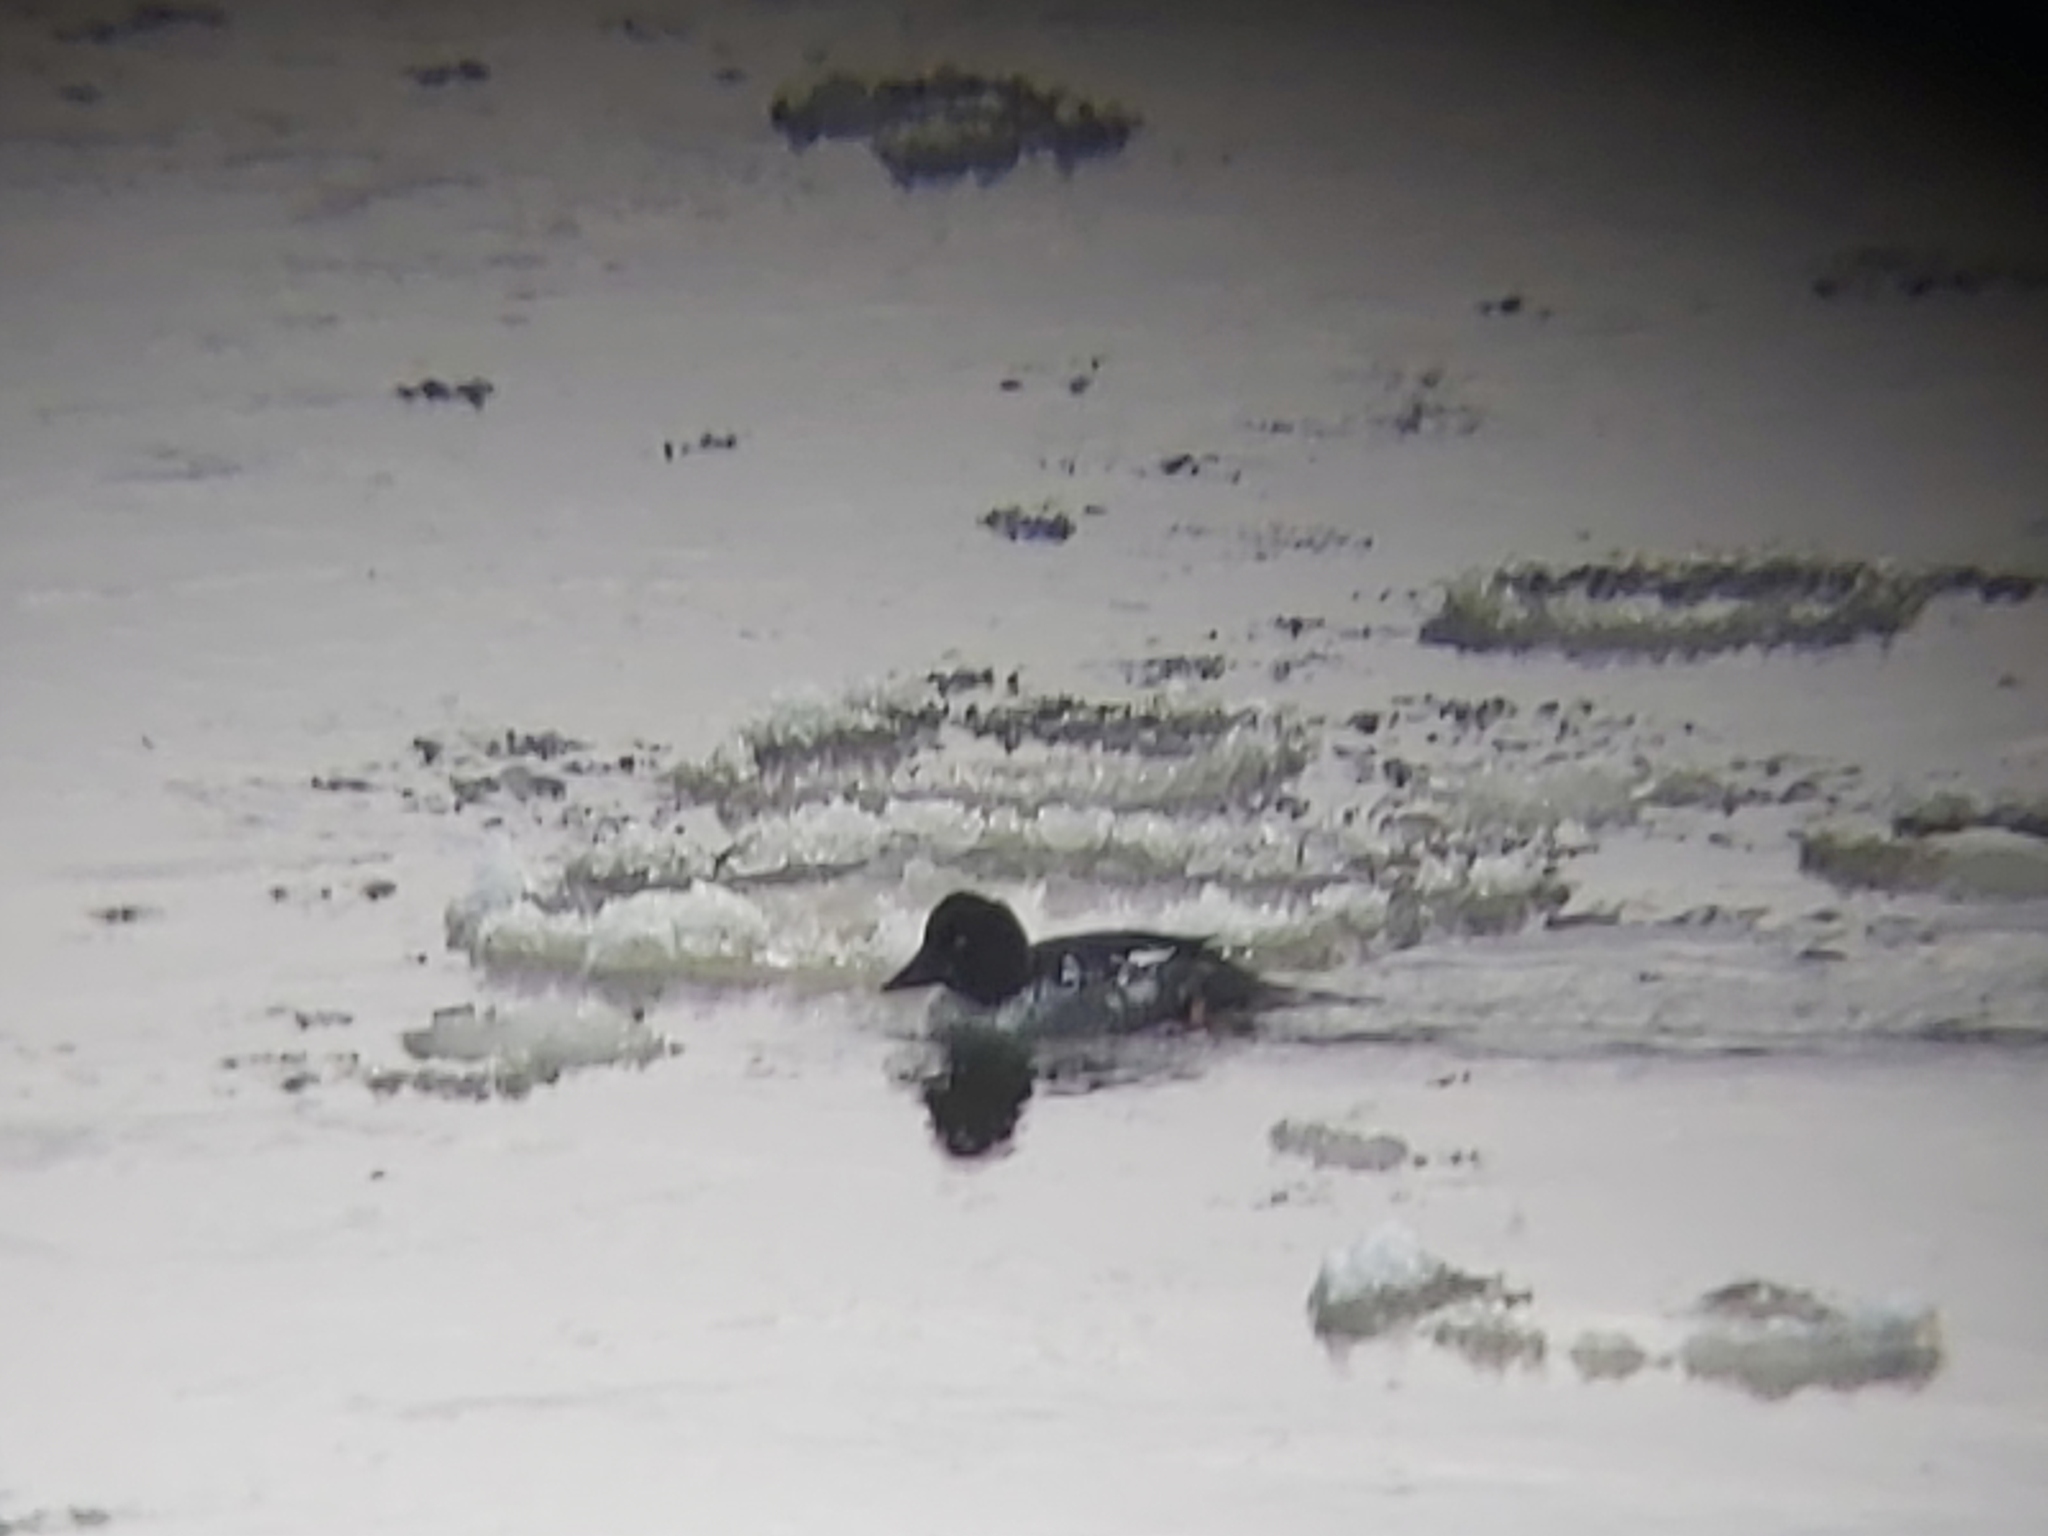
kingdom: Animalia
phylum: Chordata
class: Aves
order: Anseriformes
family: Anatidae
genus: Bucephala
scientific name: Bucephala clangula
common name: Common goldeneye
